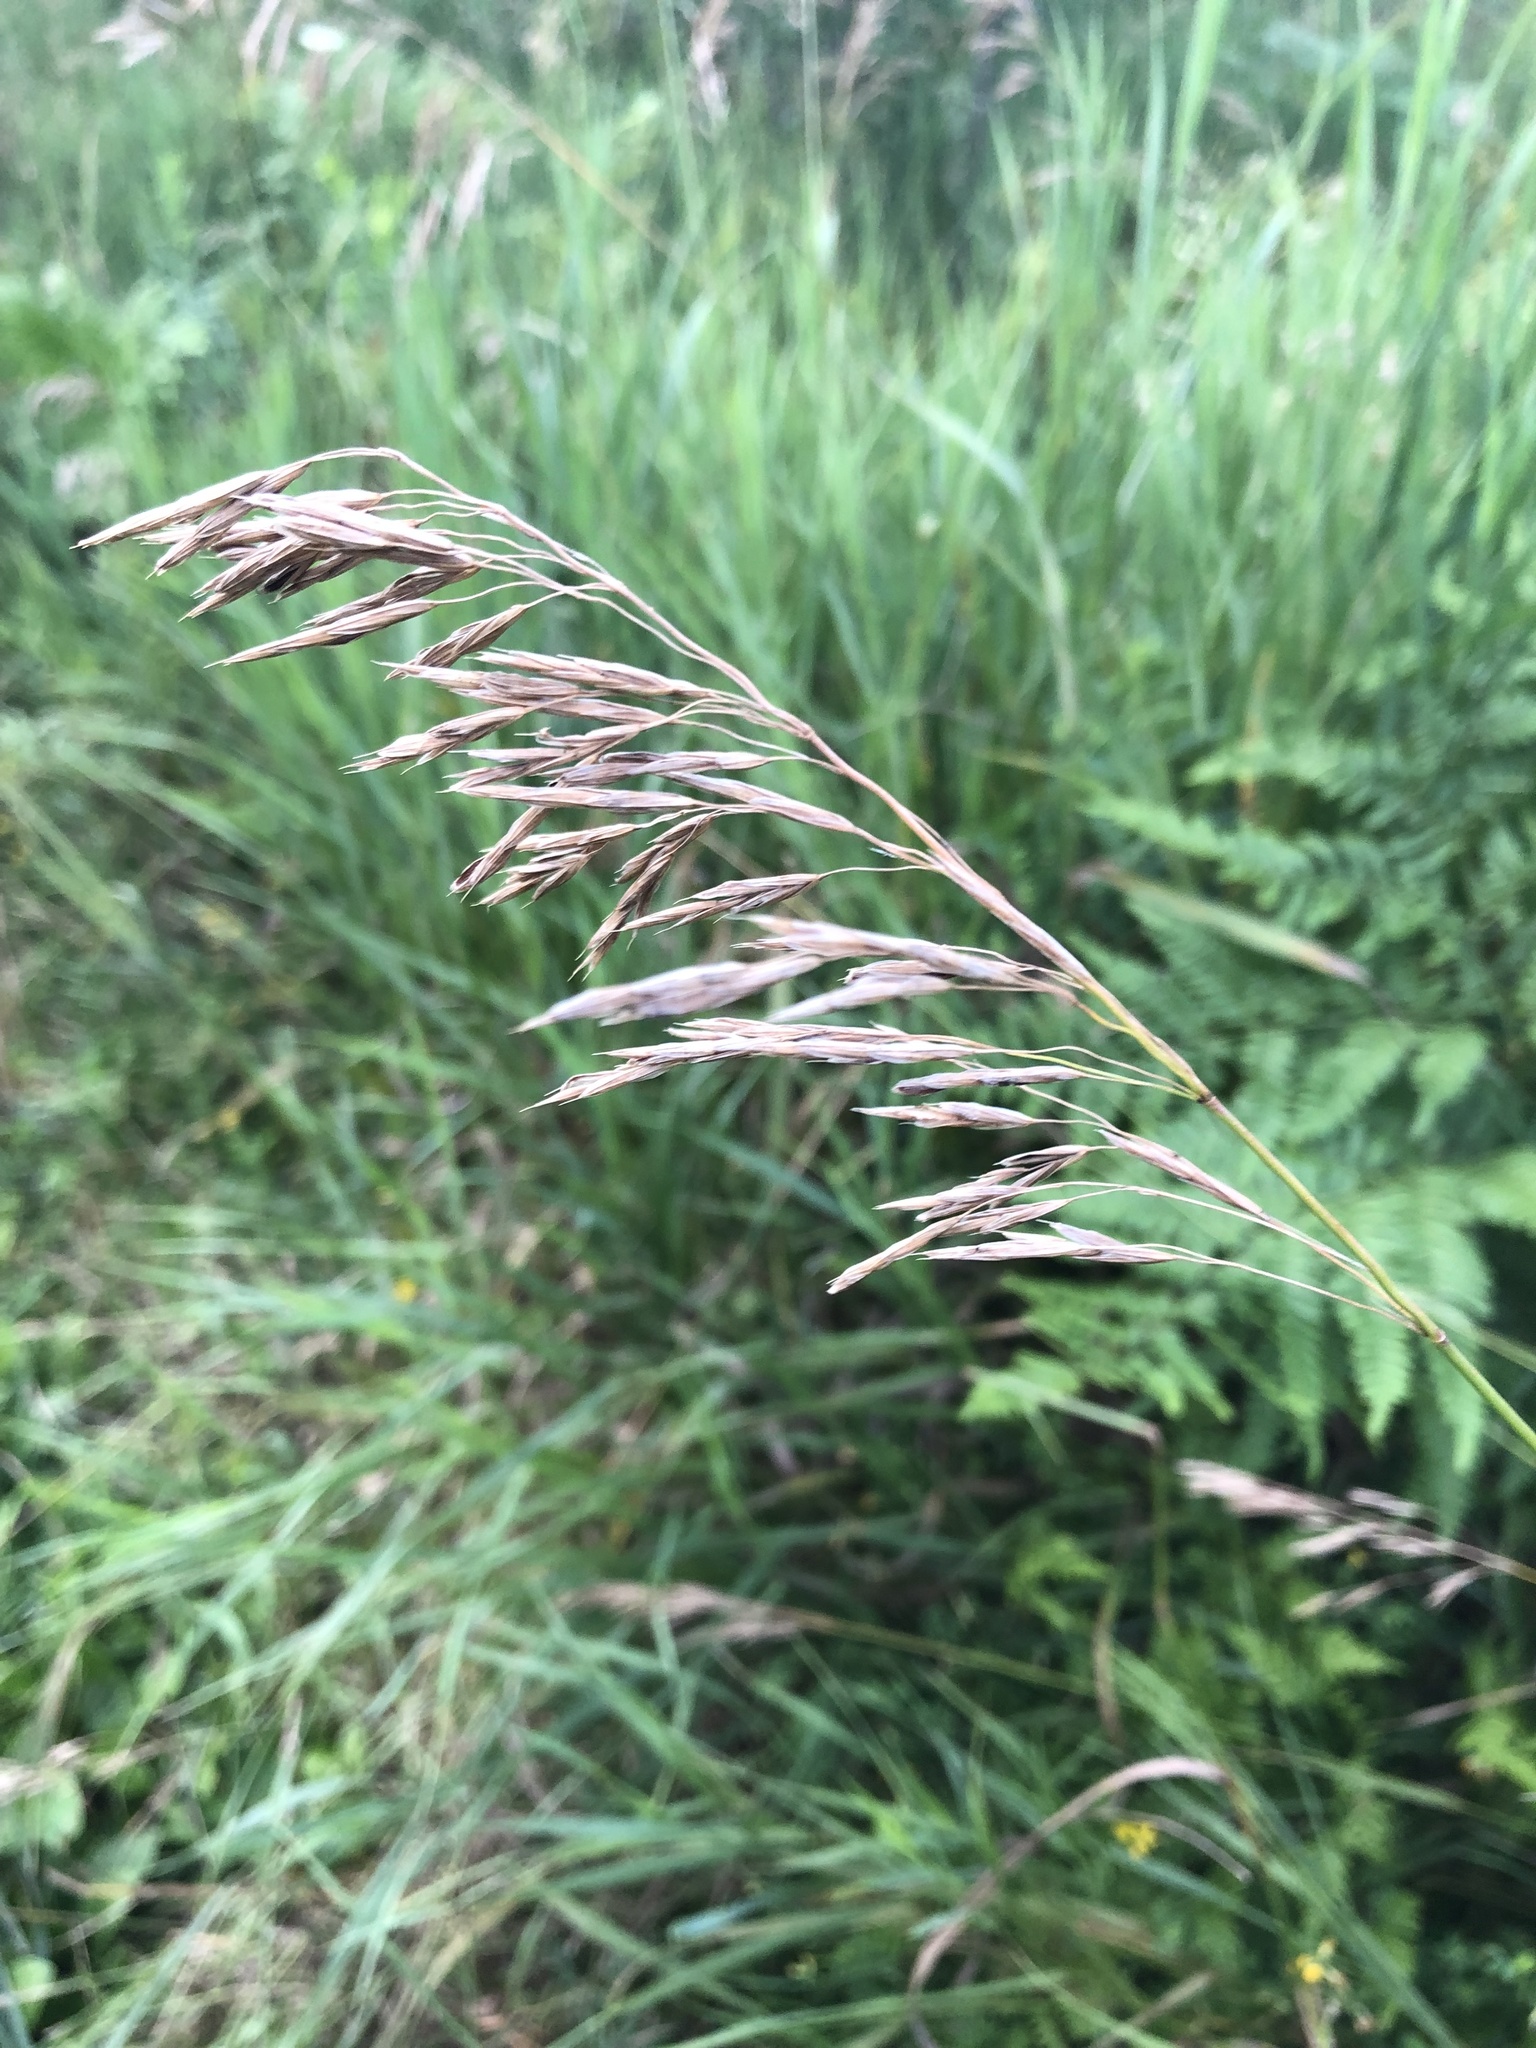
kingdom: Plantae
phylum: Tracheophyta
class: Liliopsida
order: Poales
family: Poaceae
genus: Bromus
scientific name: Bromus inermis
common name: Smooth brome
